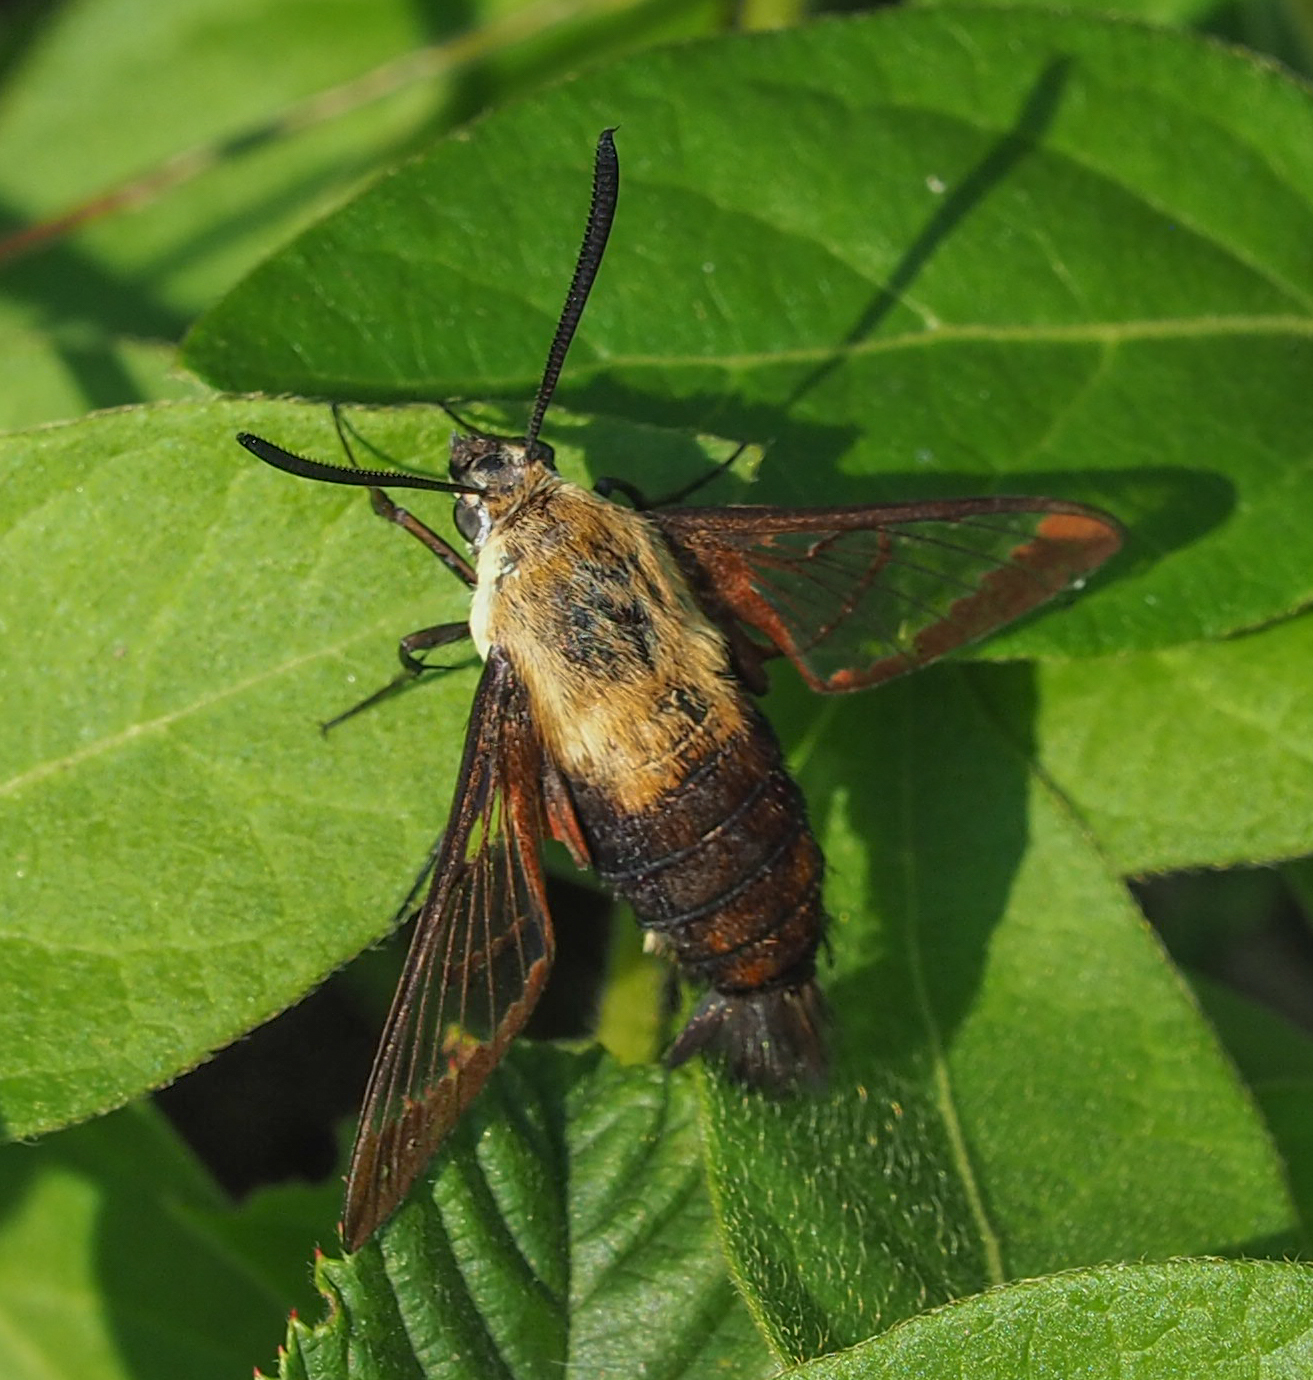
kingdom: Animalia
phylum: Arthropoda
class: Insecta
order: Lepidoptera
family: Sphingidae
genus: Hemaris
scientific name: Hemaris diffinis
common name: Bumblebee moth
